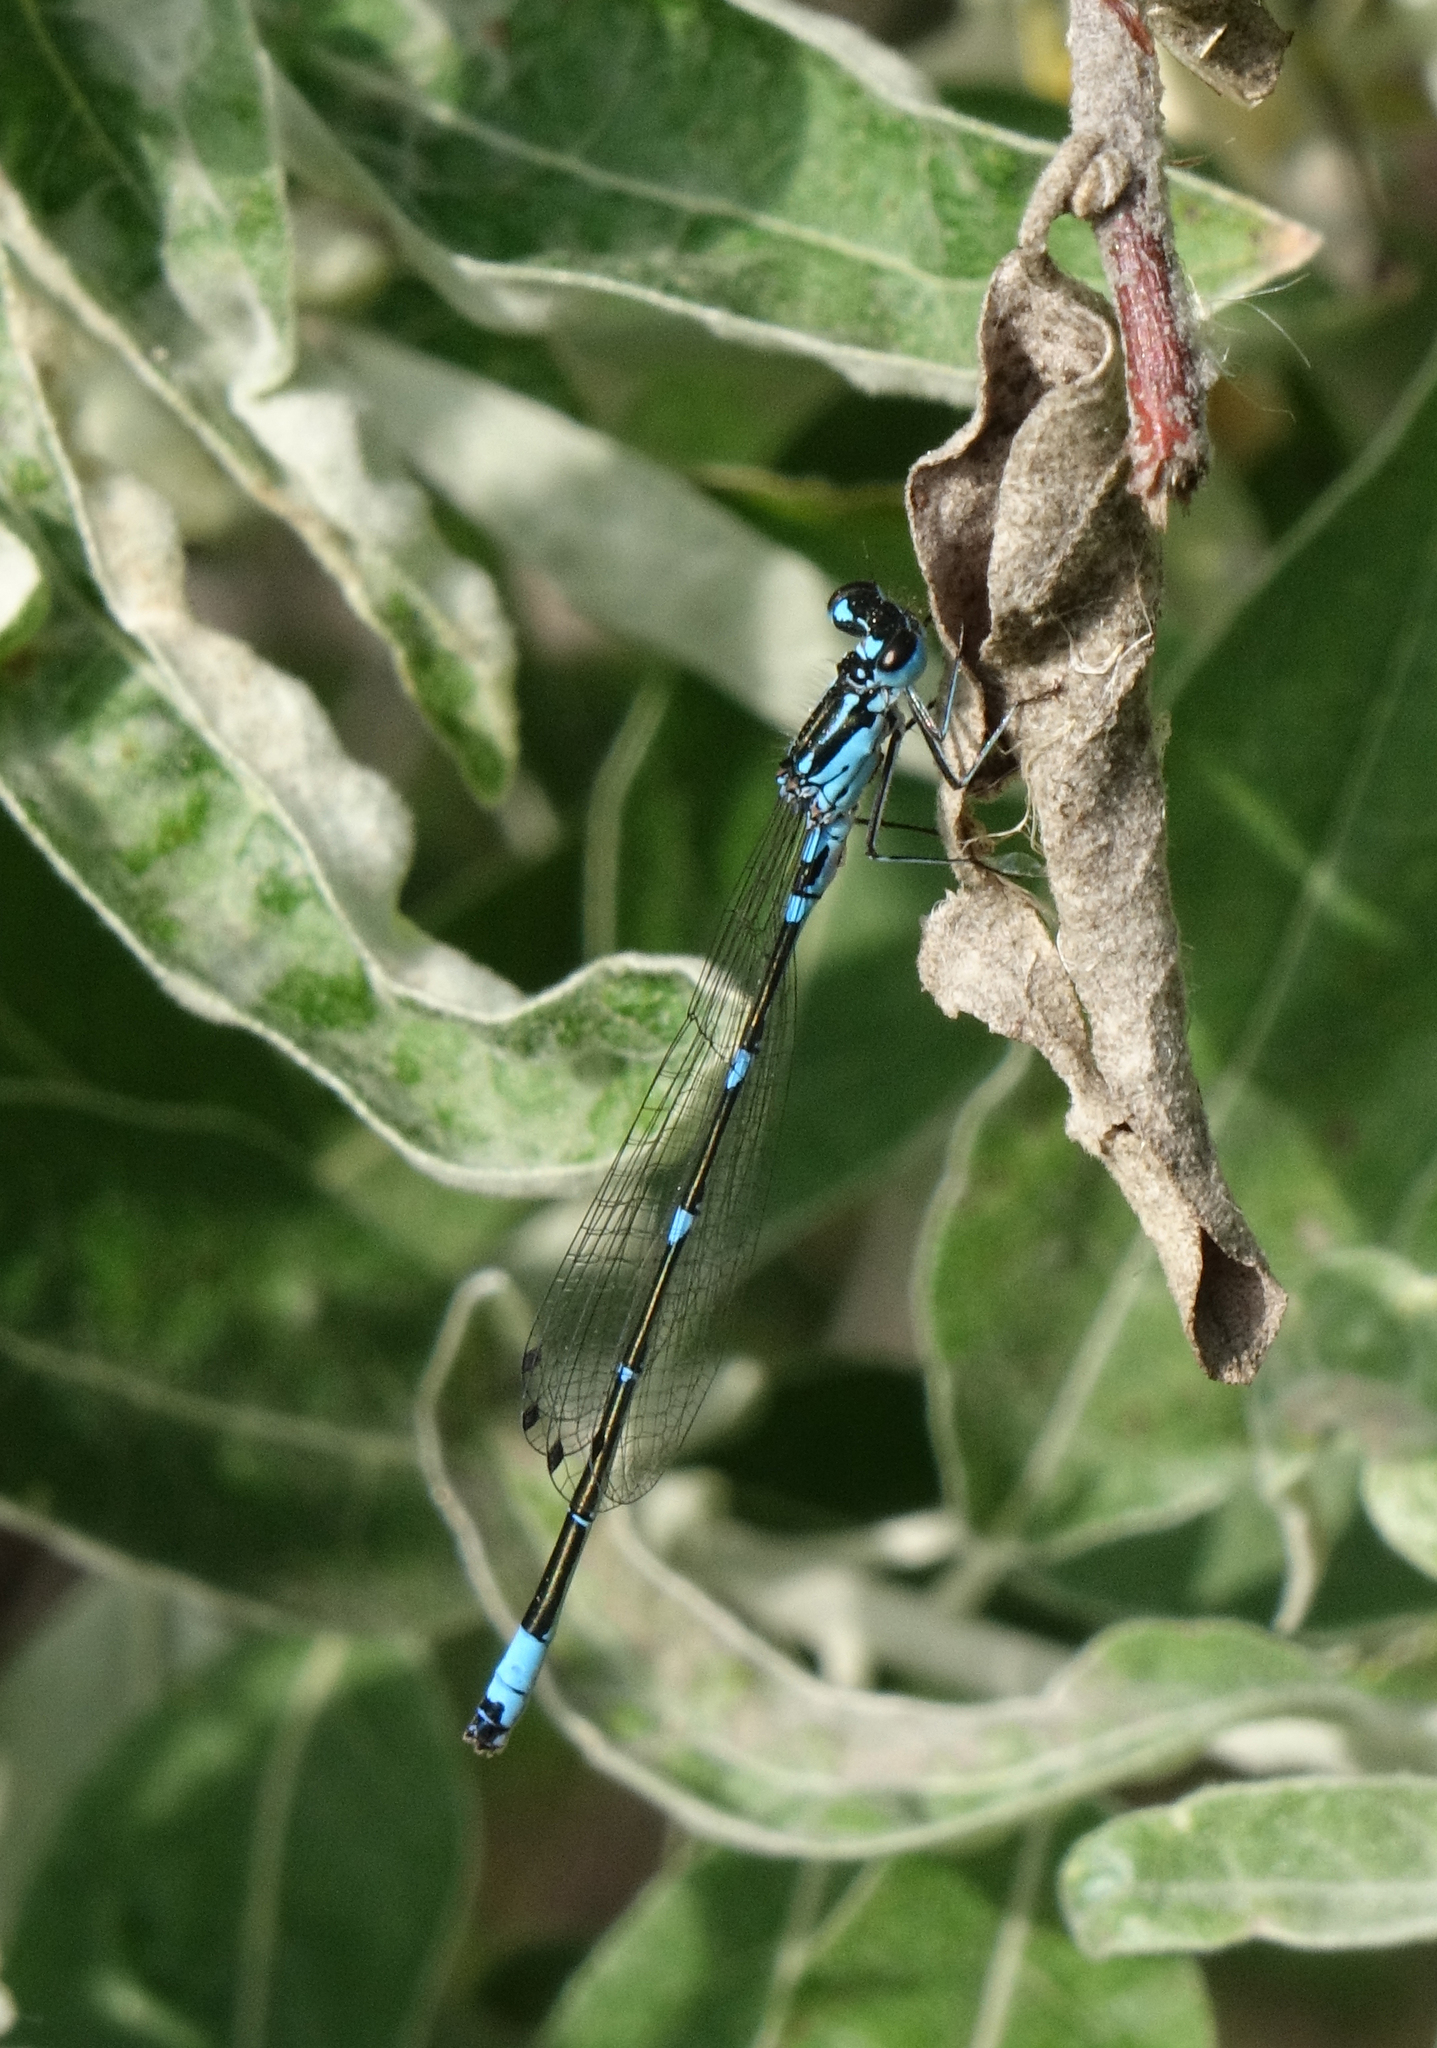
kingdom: Animalia
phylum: Arthropoda
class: Insecta
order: Odonata
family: Coenagrionidae
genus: Coenagrion
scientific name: Coenagrion pulchellum
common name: Variable bluet
